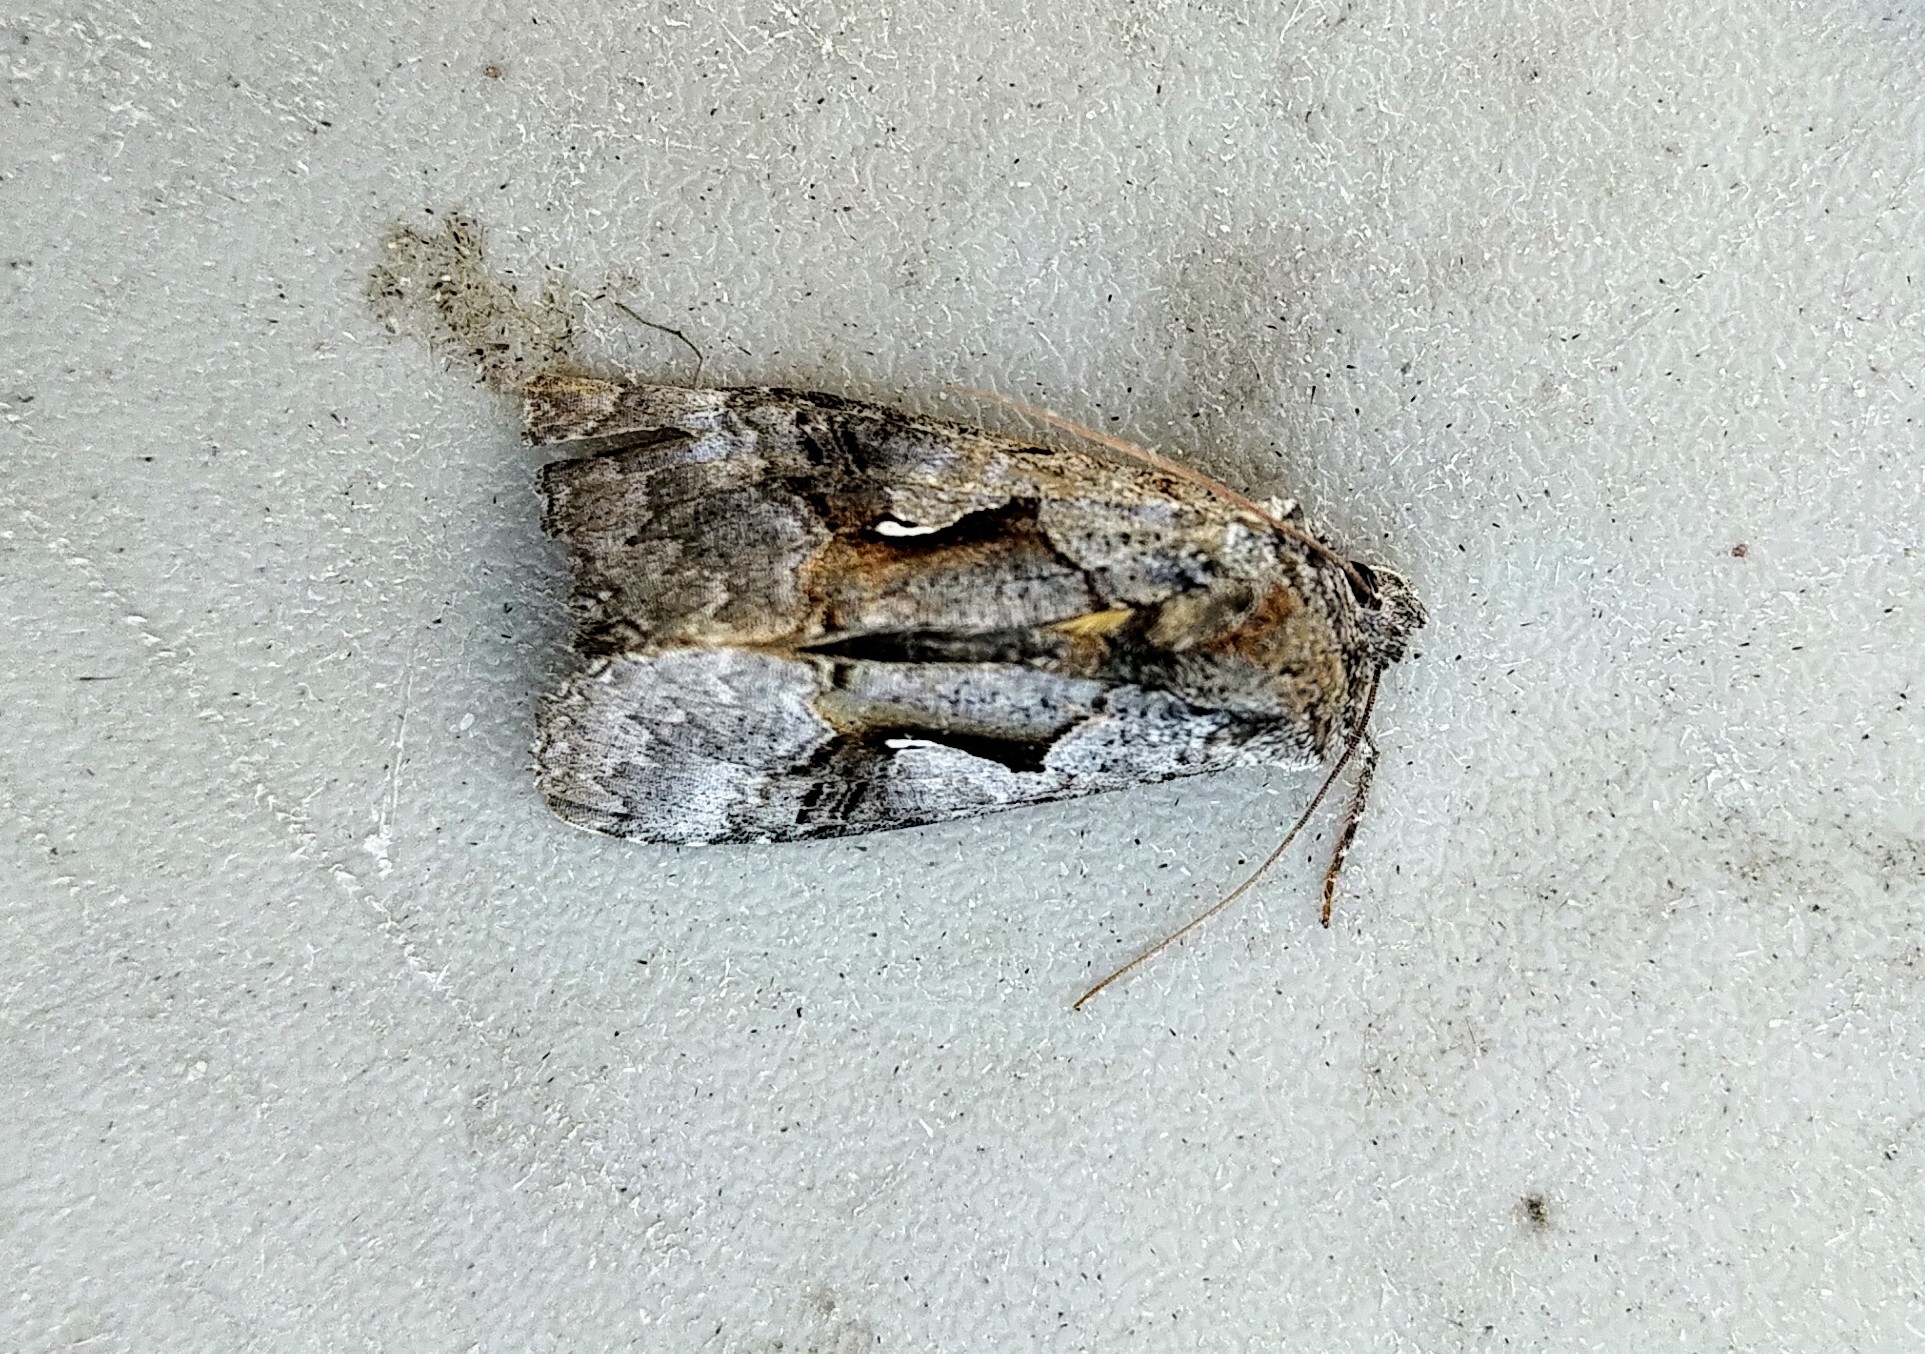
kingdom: Animalia
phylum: Arthropoda
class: Insecta
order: Lepidoptera
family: Noctuidae
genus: Syngrapha
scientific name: Syngrapha epigaea
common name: Epigaea looper moth
